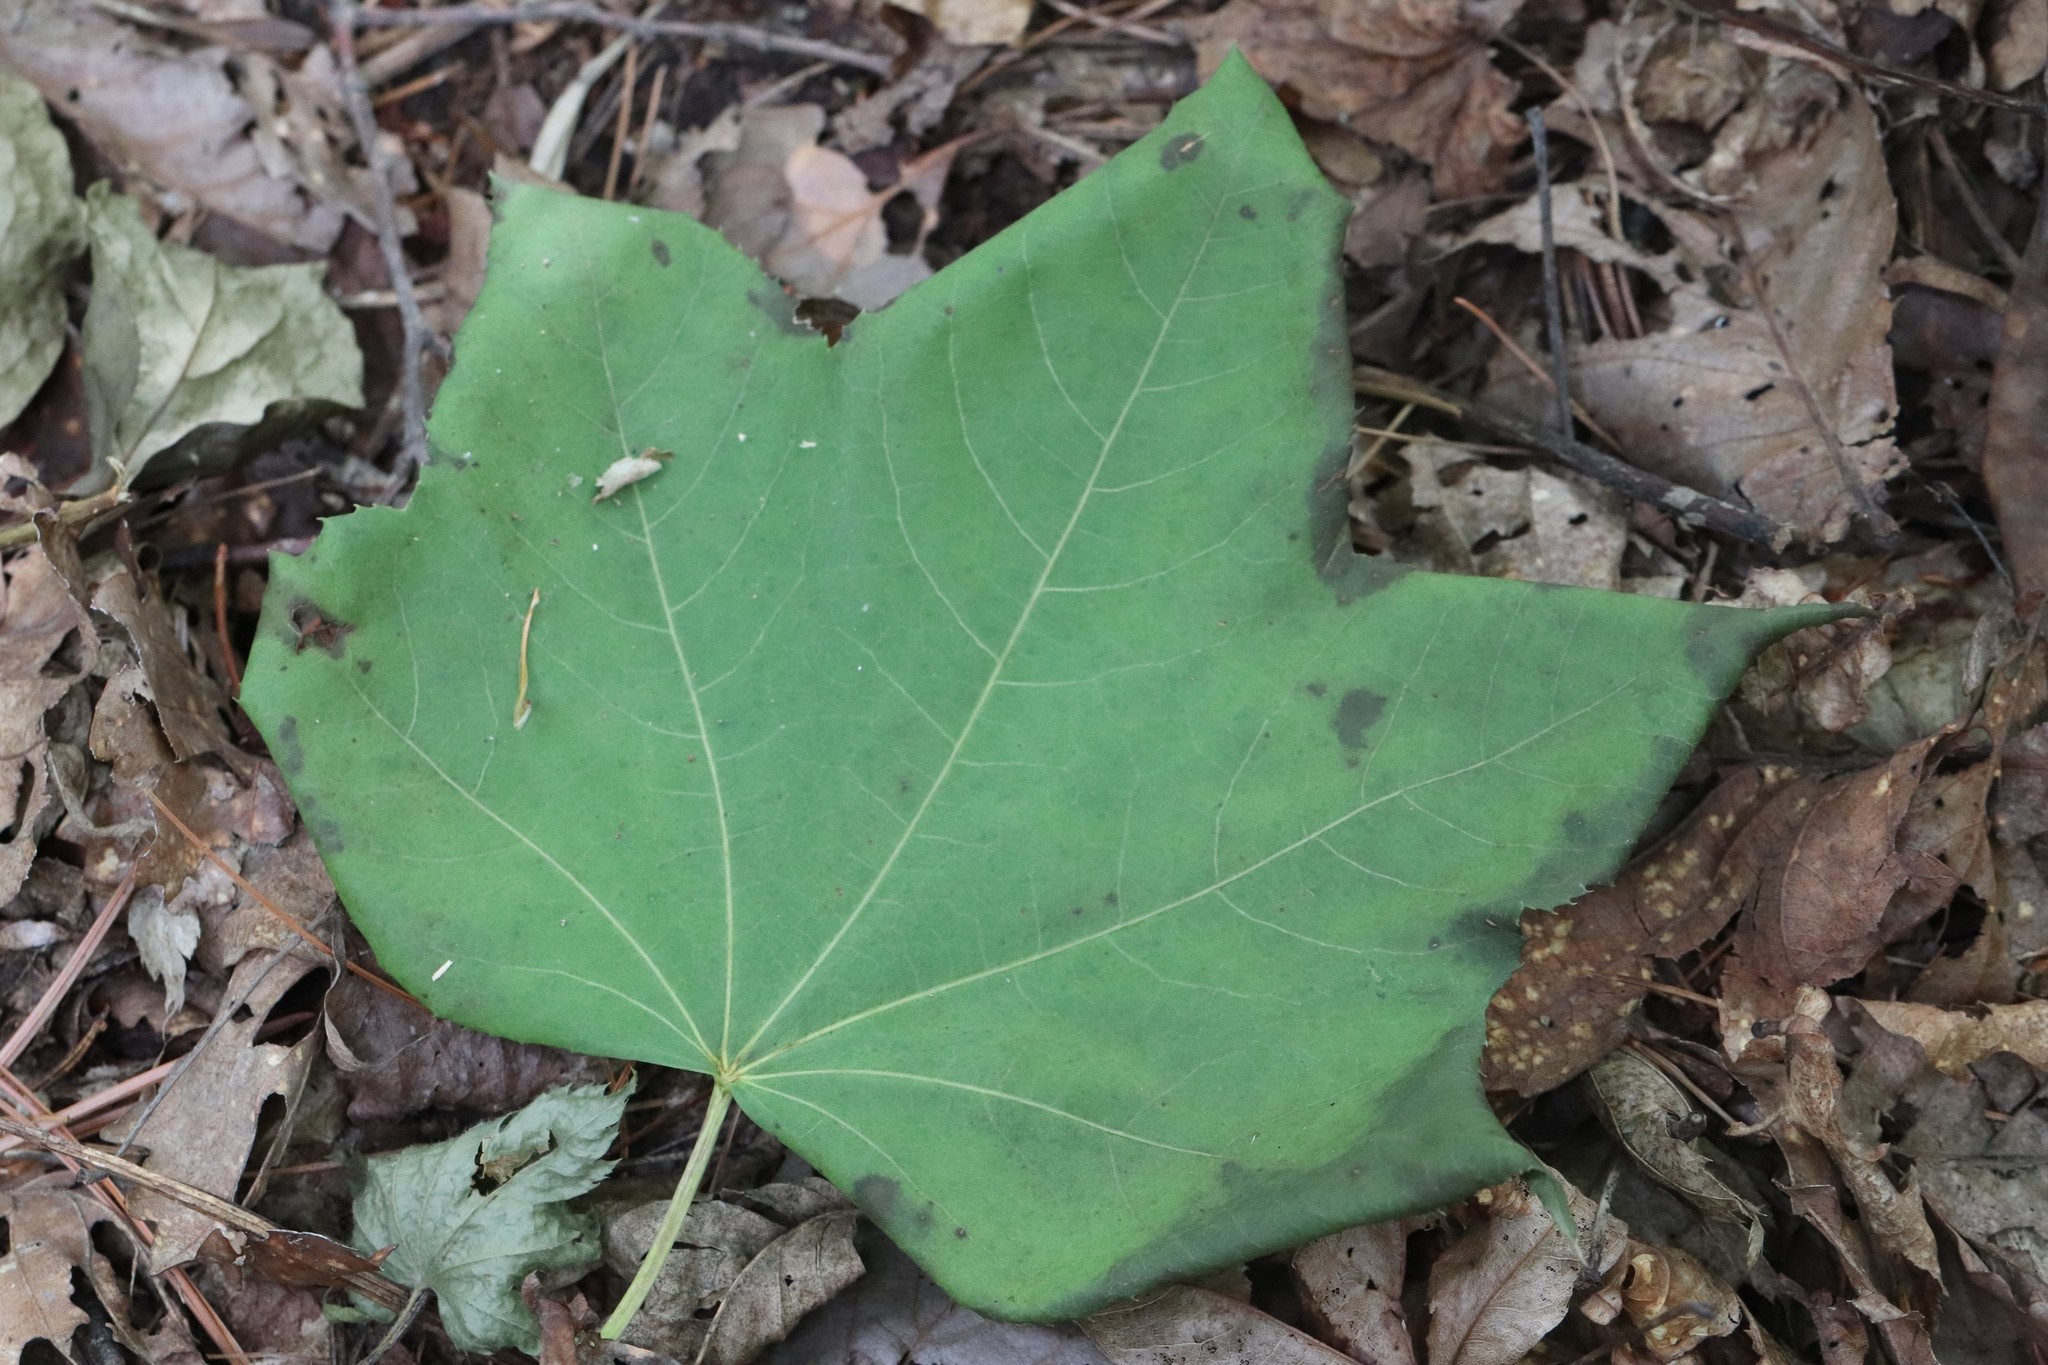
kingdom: Plantae
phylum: Tracheophyta
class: Magnoliopsida
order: Apiales
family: Araliaceae
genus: Kalopanax
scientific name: Kalopanax septemlobus
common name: Castor aralia
